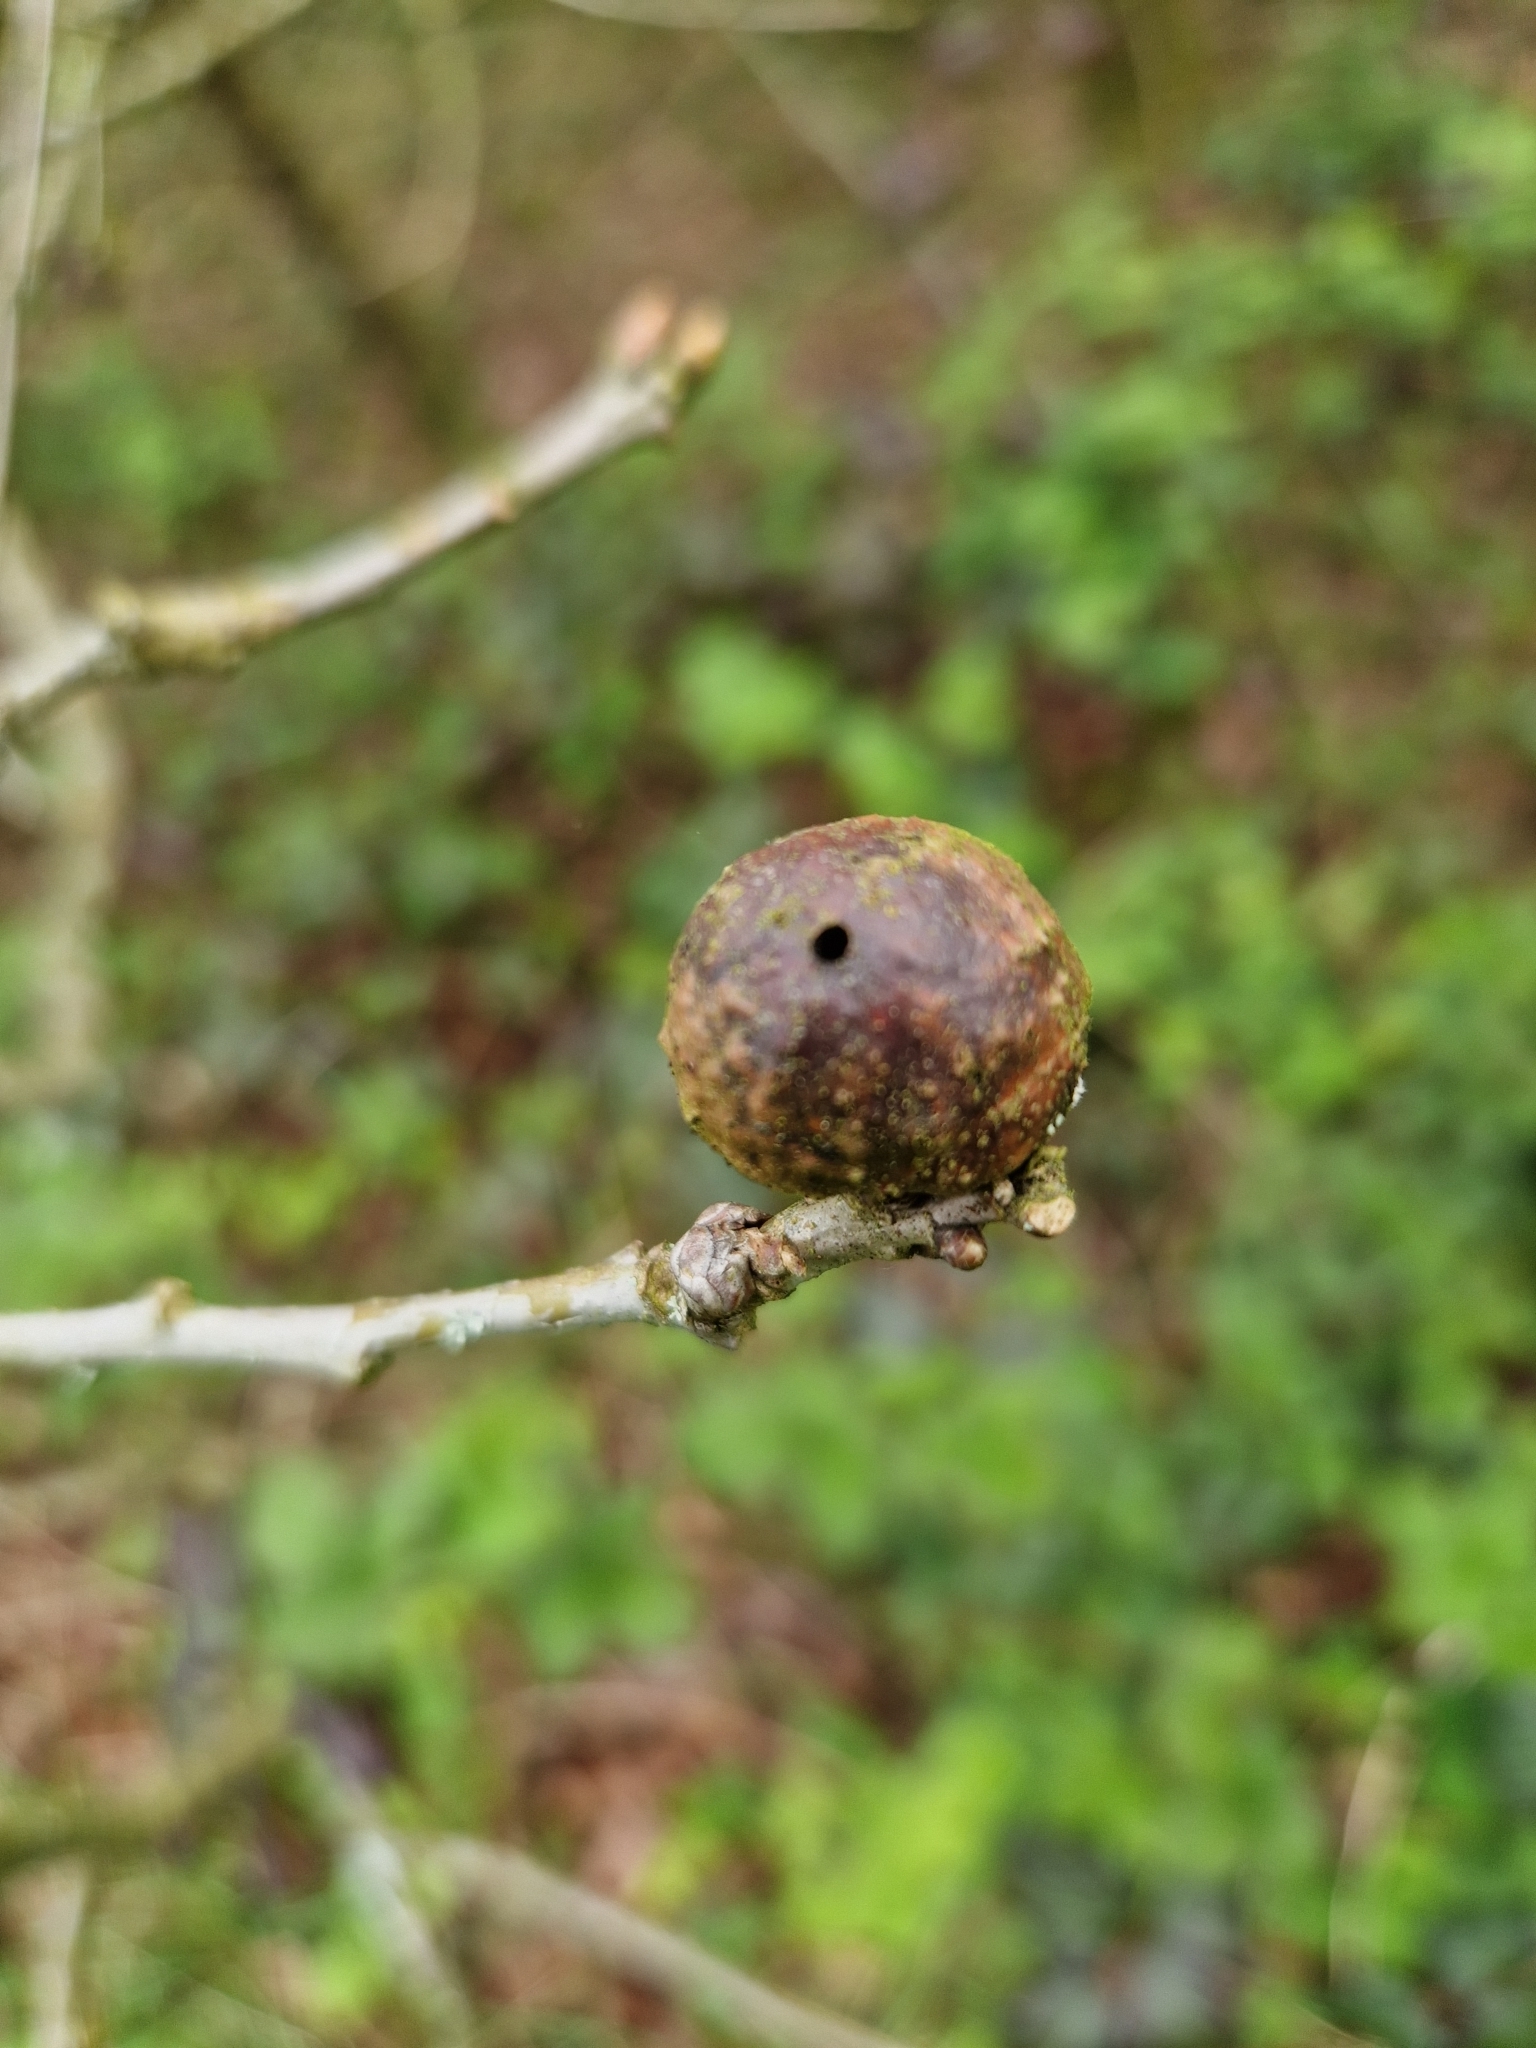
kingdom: Animalia
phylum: Arthropoda
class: Insecta
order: Hymenoptera
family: Cynipidae
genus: Andricus
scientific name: Andricus kollari
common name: Marble gall
